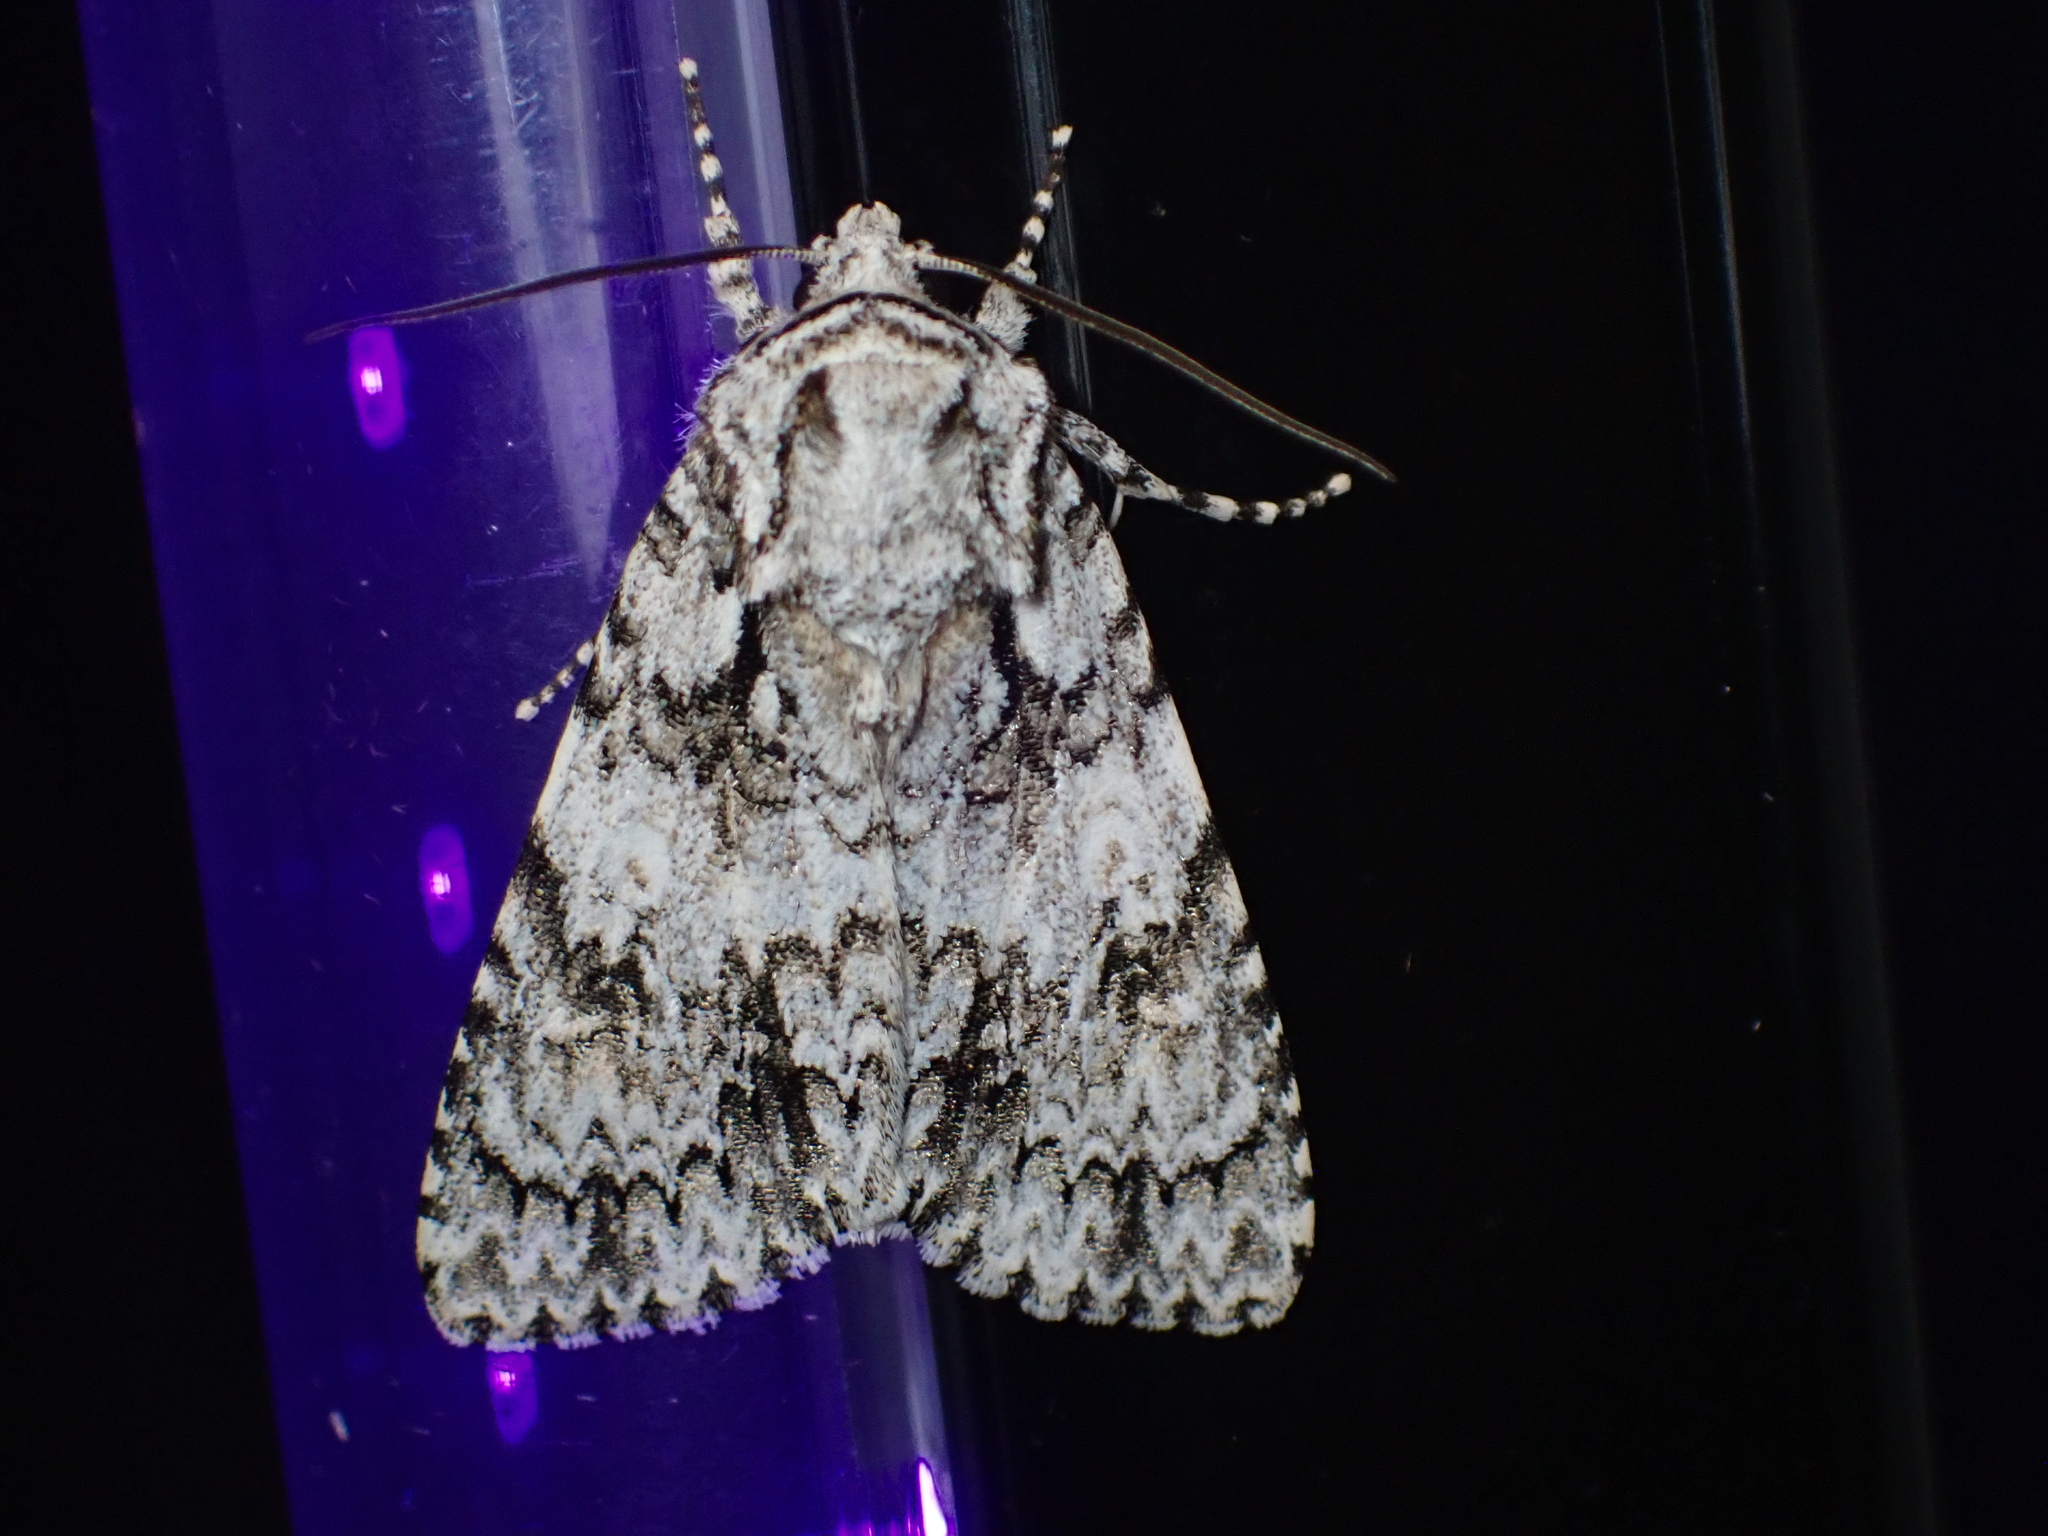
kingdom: Animalia
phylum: Arthropoda
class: Insecta
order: Lepidoptera
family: Noctuidae
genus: Acronicta
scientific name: Acronicta marmorata
